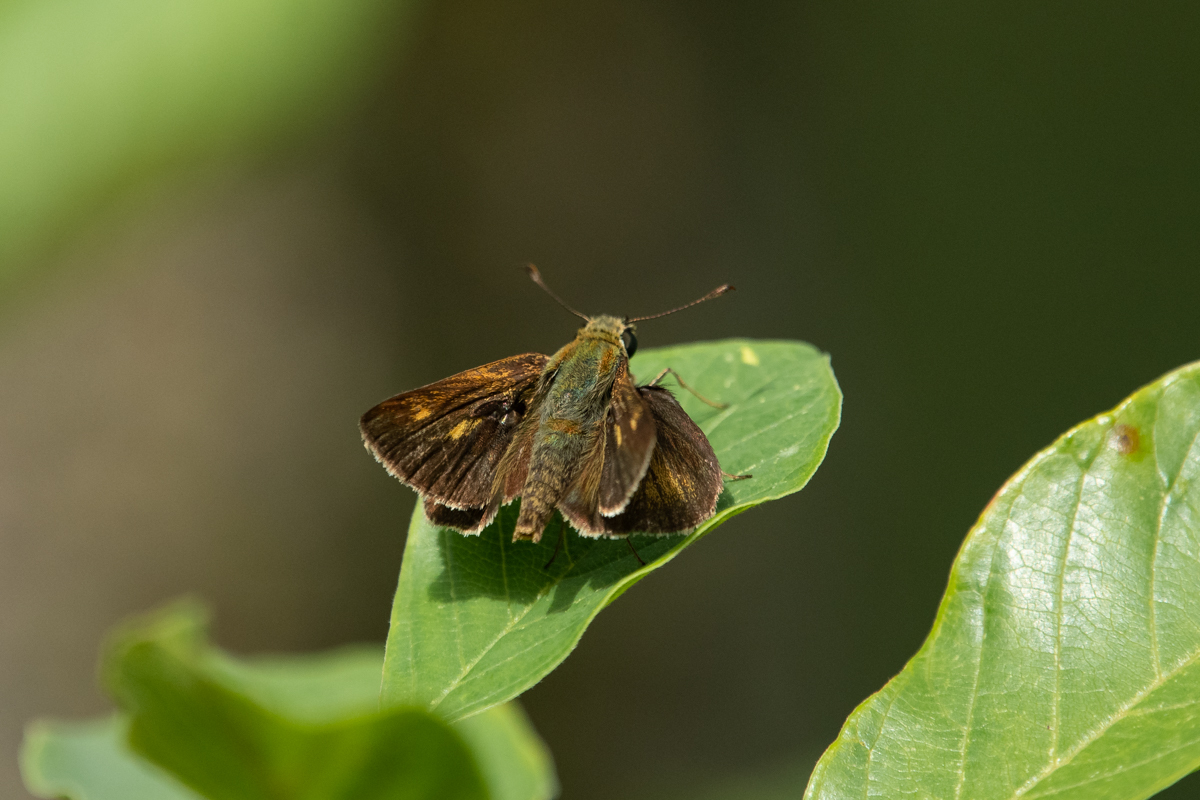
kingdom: Animalia
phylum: Arthropoda
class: Insecta
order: Lepidoptera
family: Hesperiidae
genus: Polites
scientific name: Polites egeremet
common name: Northern broken-dash
